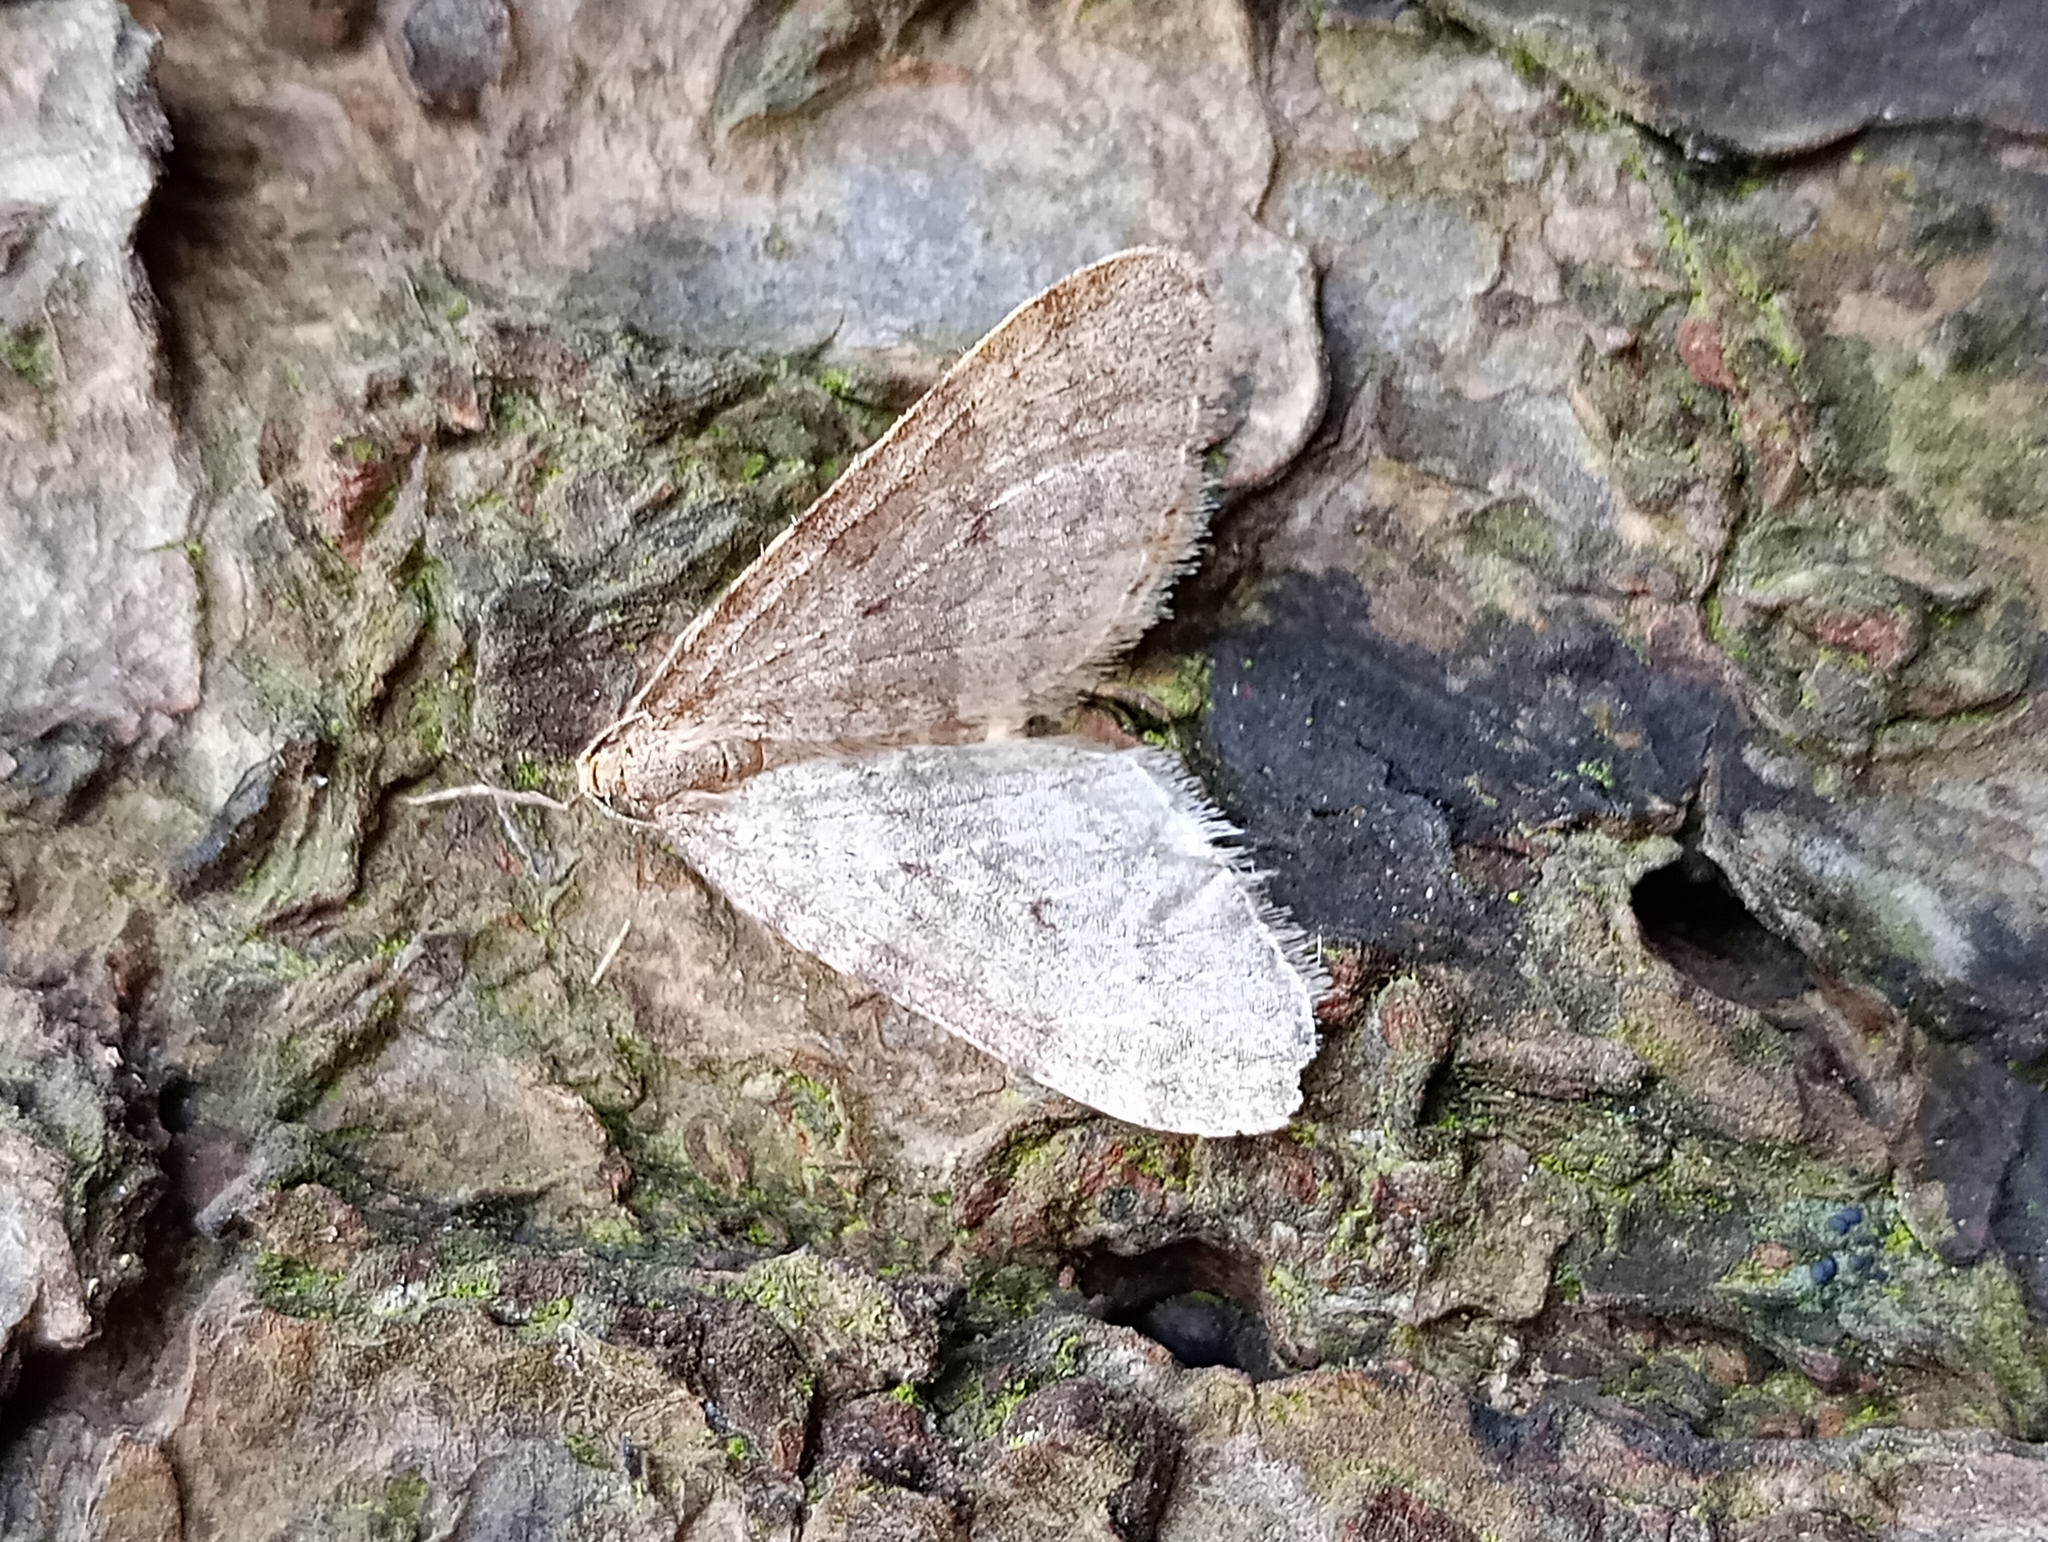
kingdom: Animalia
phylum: Arthropoda
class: Insecta
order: Lepidoptera
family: Geometridae
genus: Operophtera
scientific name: Operophtera brumata
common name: Winter moth
